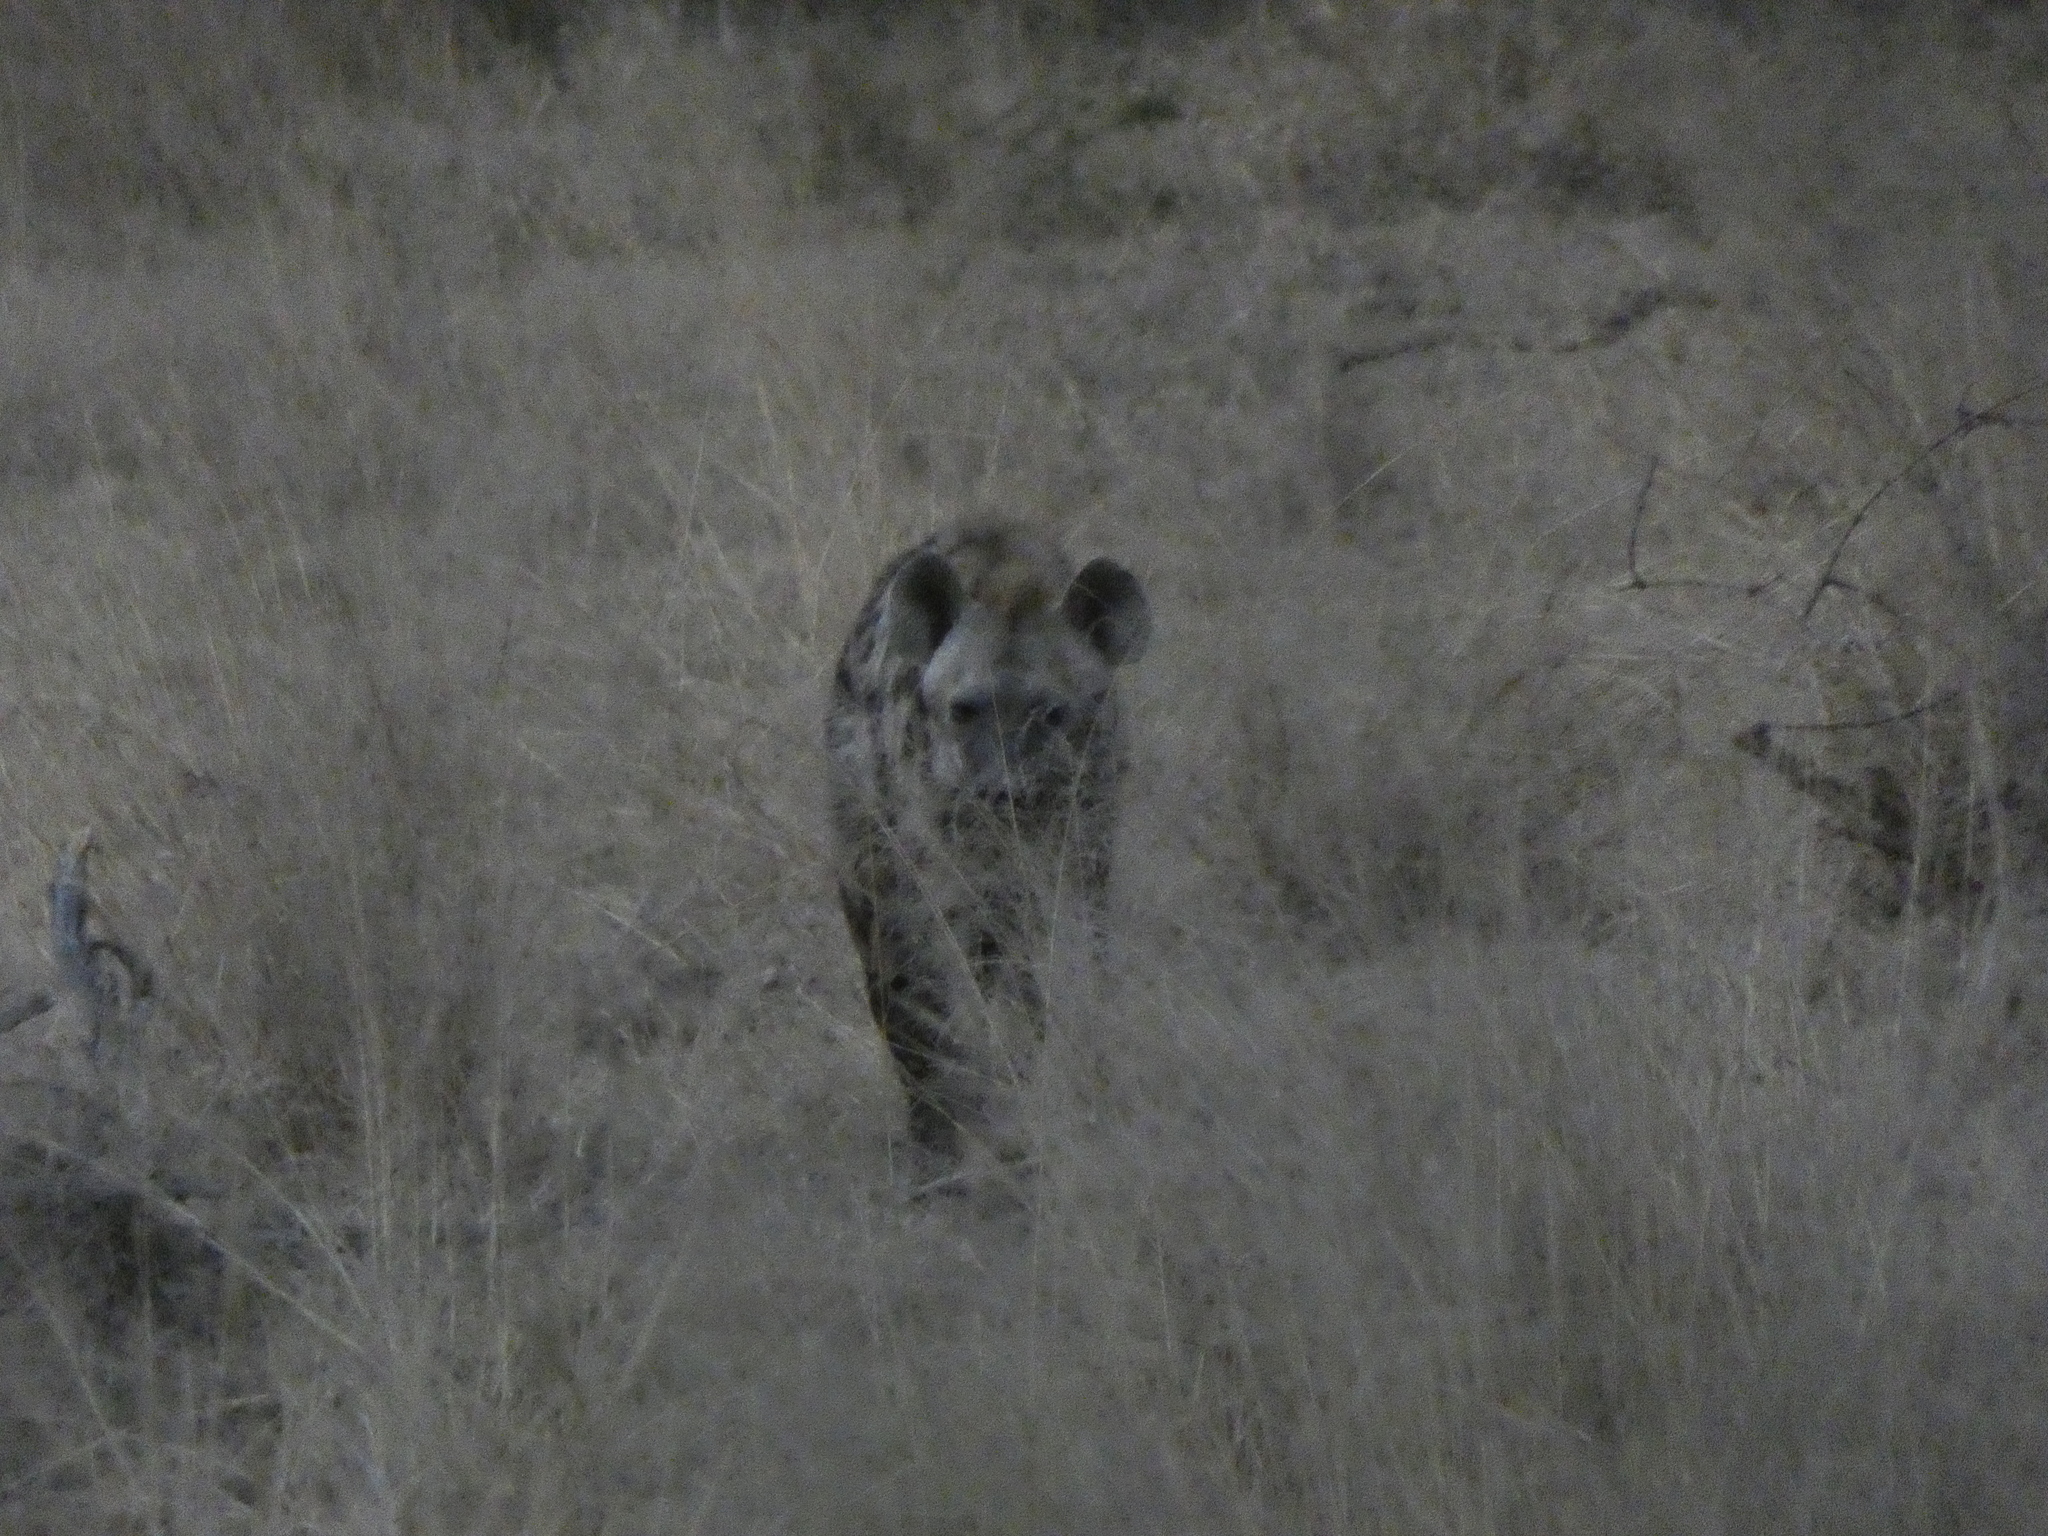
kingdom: Animalia
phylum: Chordata
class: Mammalia
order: Carnivora
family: Hyaenidae
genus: Crocuta
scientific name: Crocuta crocuta
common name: Spotted hyaena
